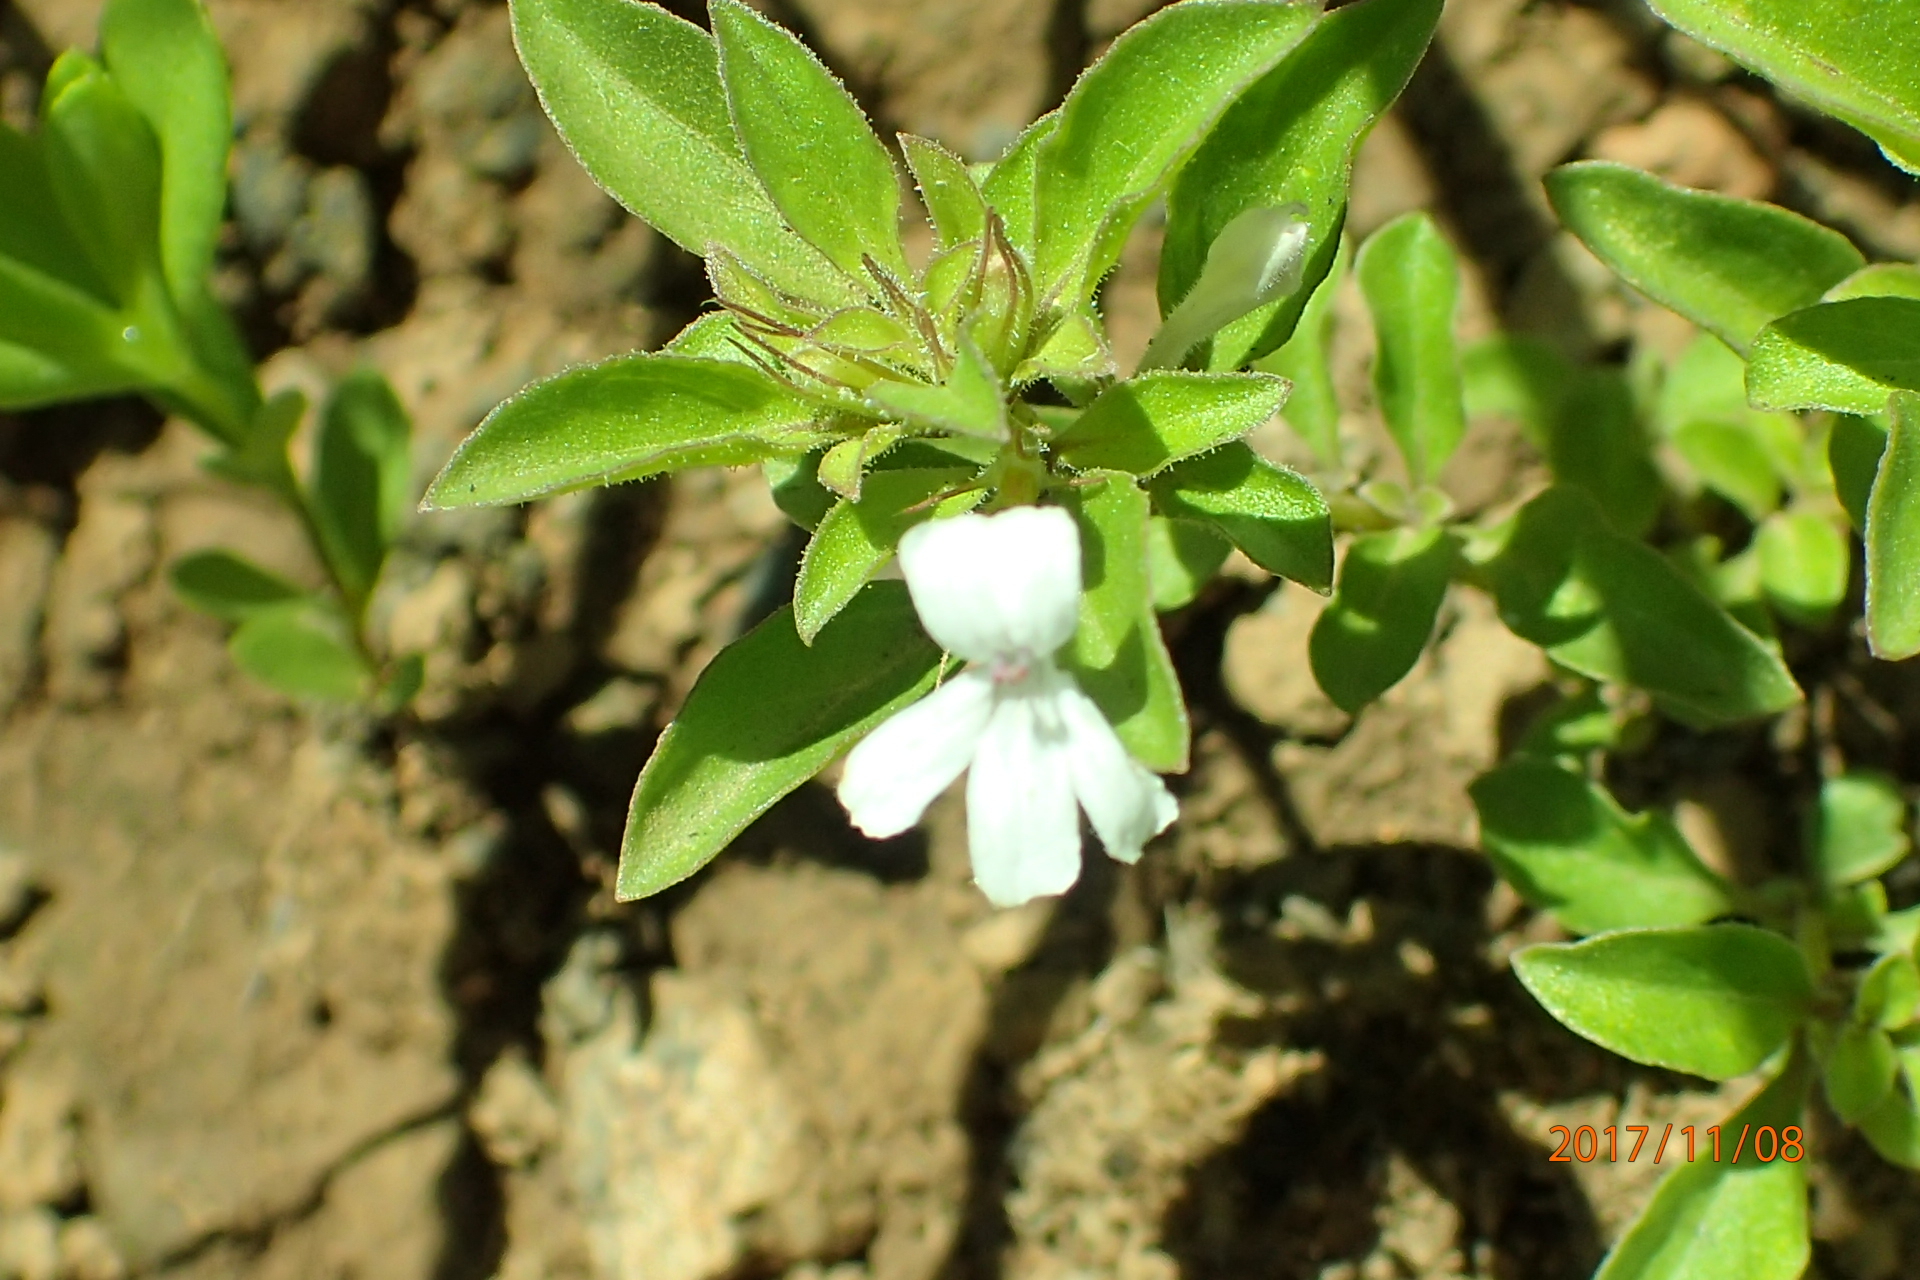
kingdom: Plantae
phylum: Tracheophyta
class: Magnoliopsida
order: Lamiales
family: Acanthaceae
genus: Dyschoriste
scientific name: Dyschoriste radicans
